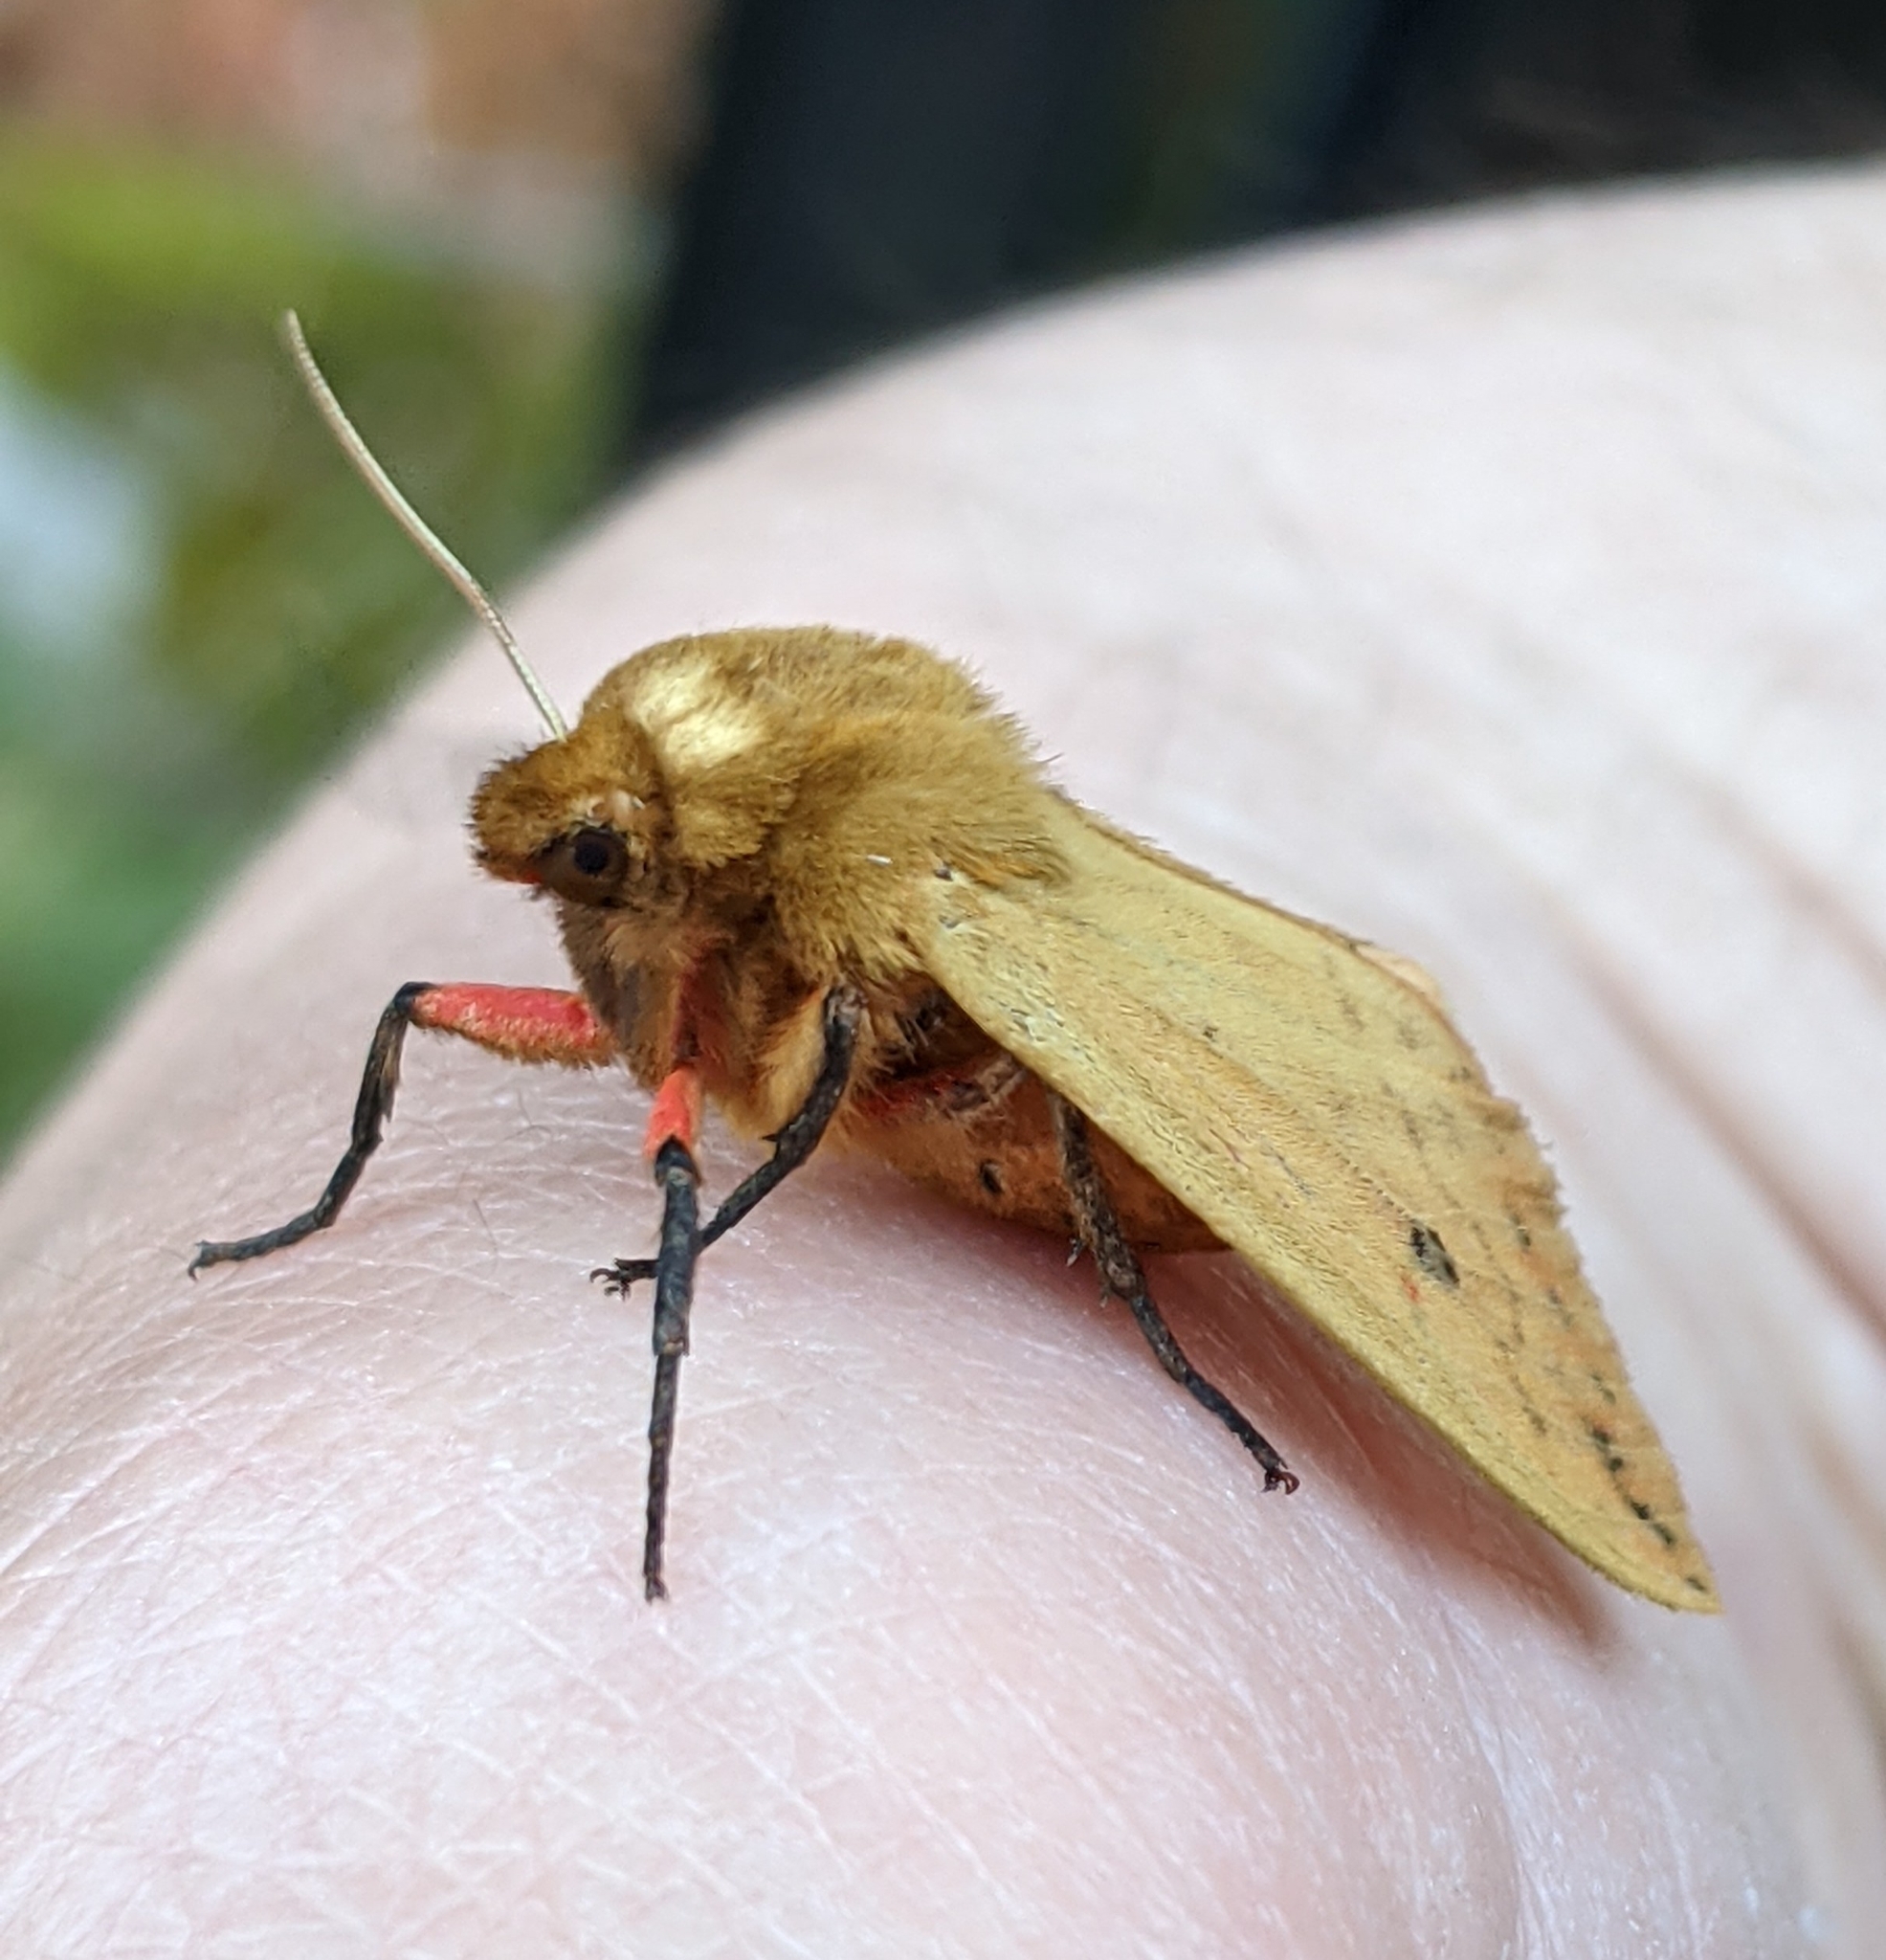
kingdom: Animalia
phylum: Arthropoda
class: Insecta
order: Lepidoptera
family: Erebidae
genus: Pyrrharctia
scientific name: Pyrrharctia isabella
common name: Isabella tiger moth
